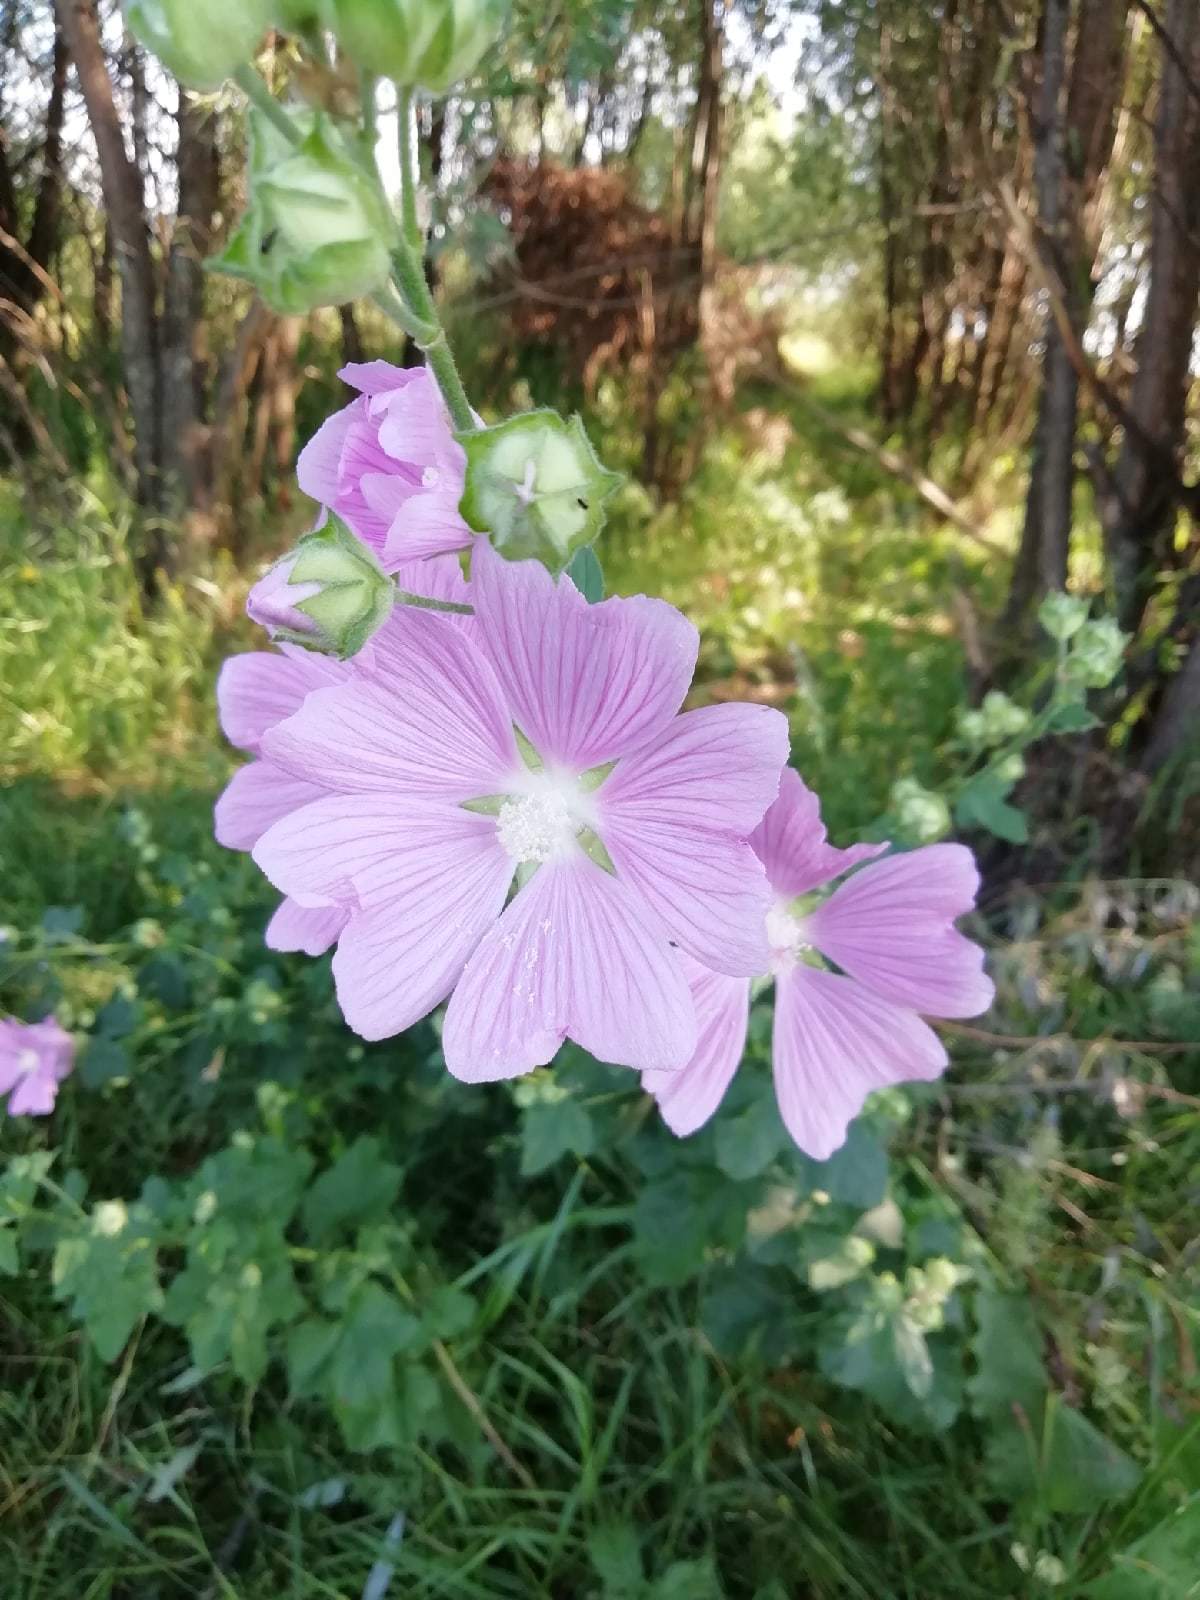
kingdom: Plantae
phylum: Tracheophyta
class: Magnoliopsida
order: Malvales
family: Malvaceae
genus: Malva
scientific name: Malva thuringiaca
